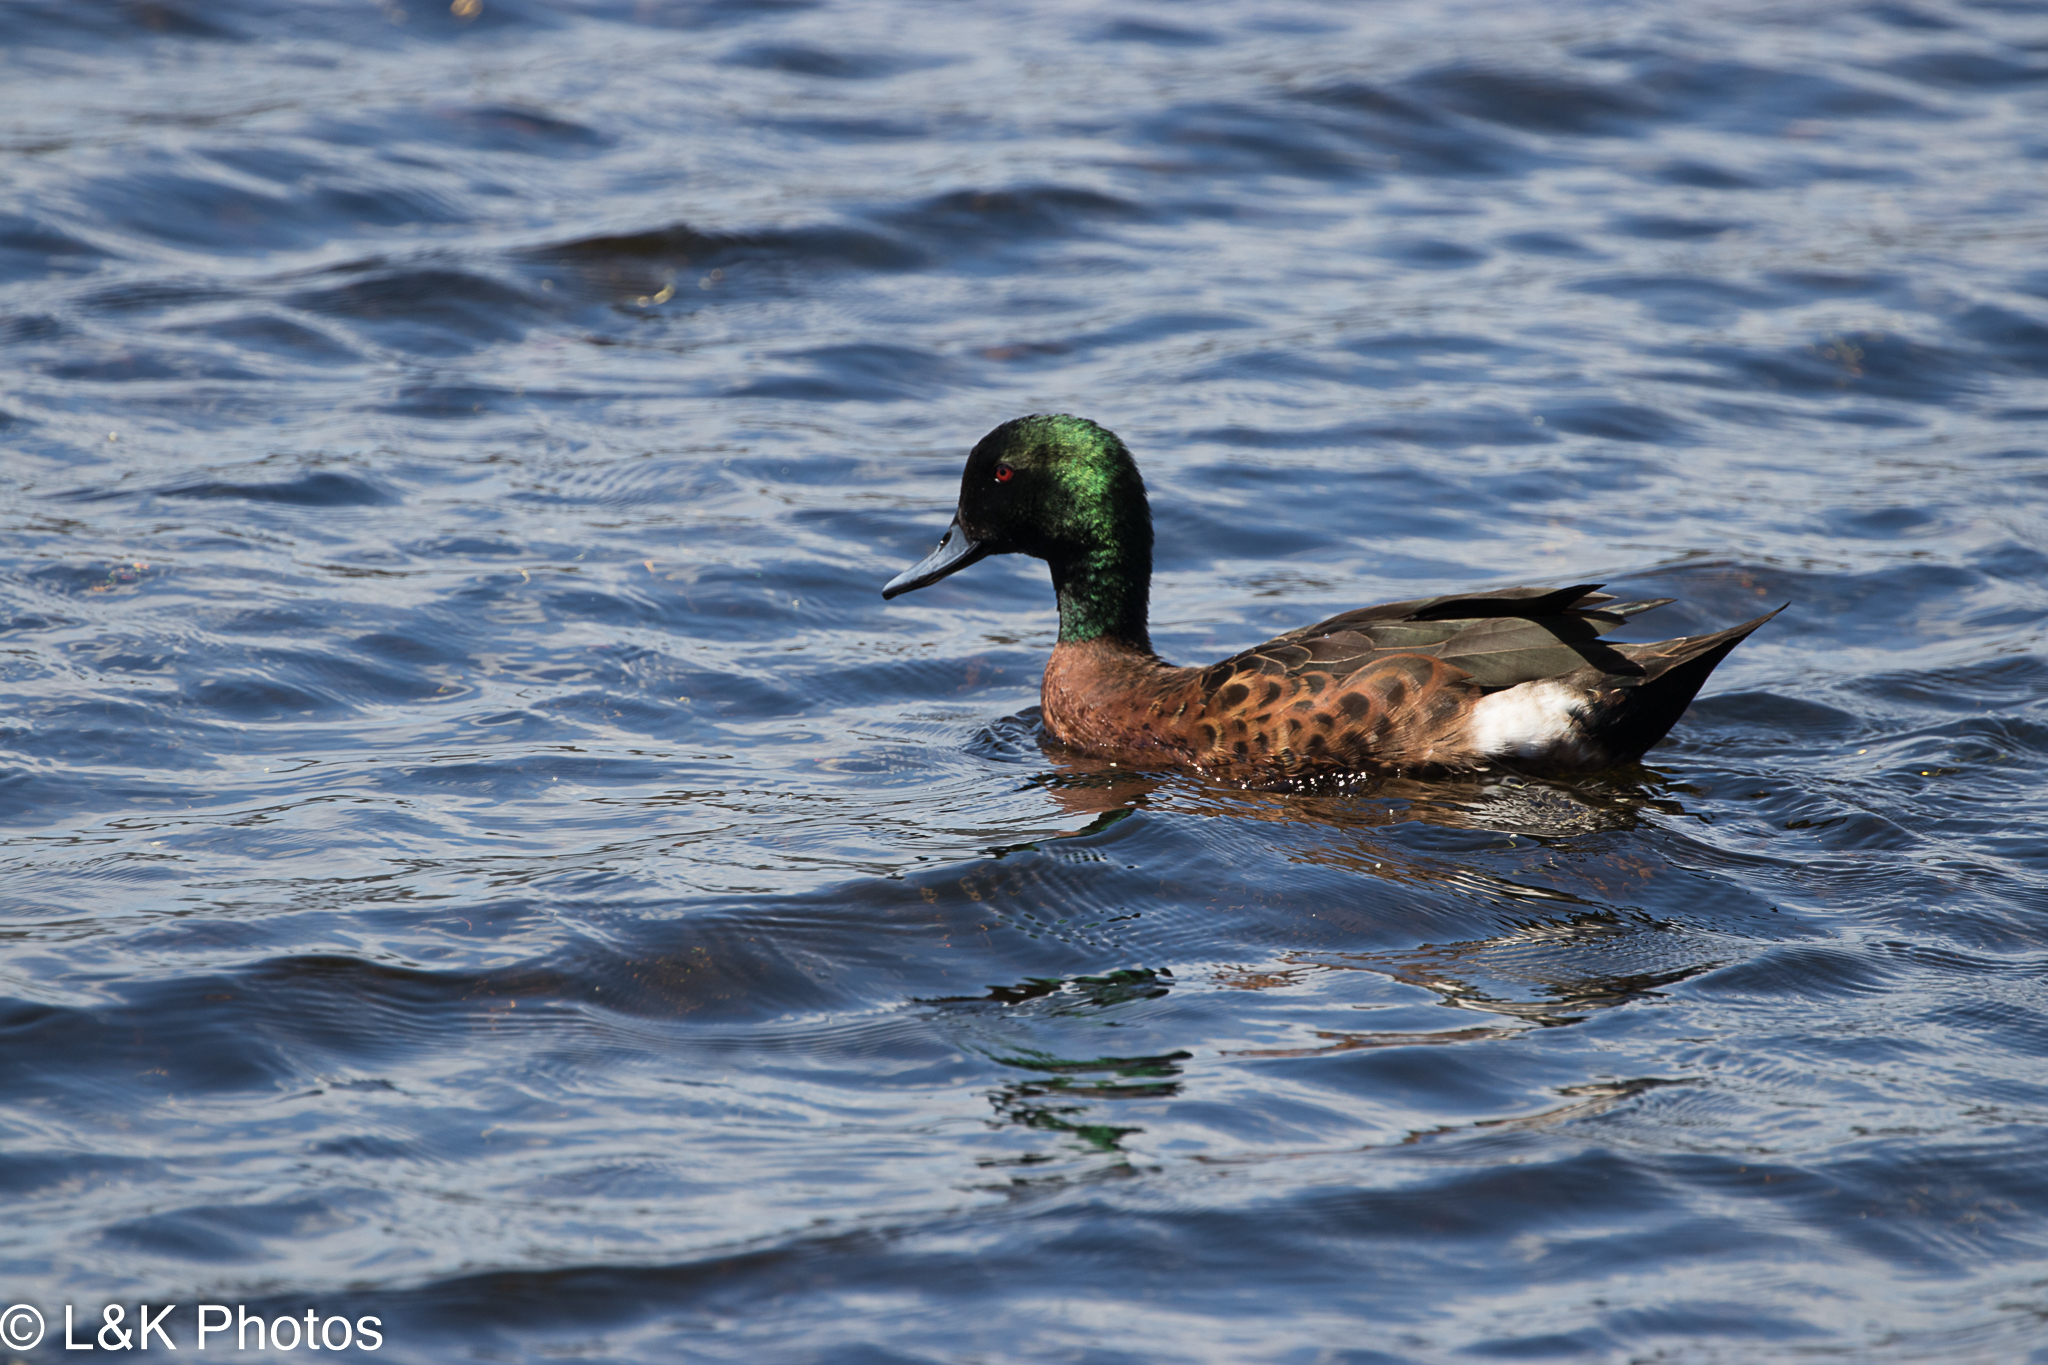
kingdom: Animalia
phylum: Chordata
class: Aves
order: Anseriformes
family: Anatidae
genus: Anas
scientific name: Anas castanea
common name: Chestnut teal
